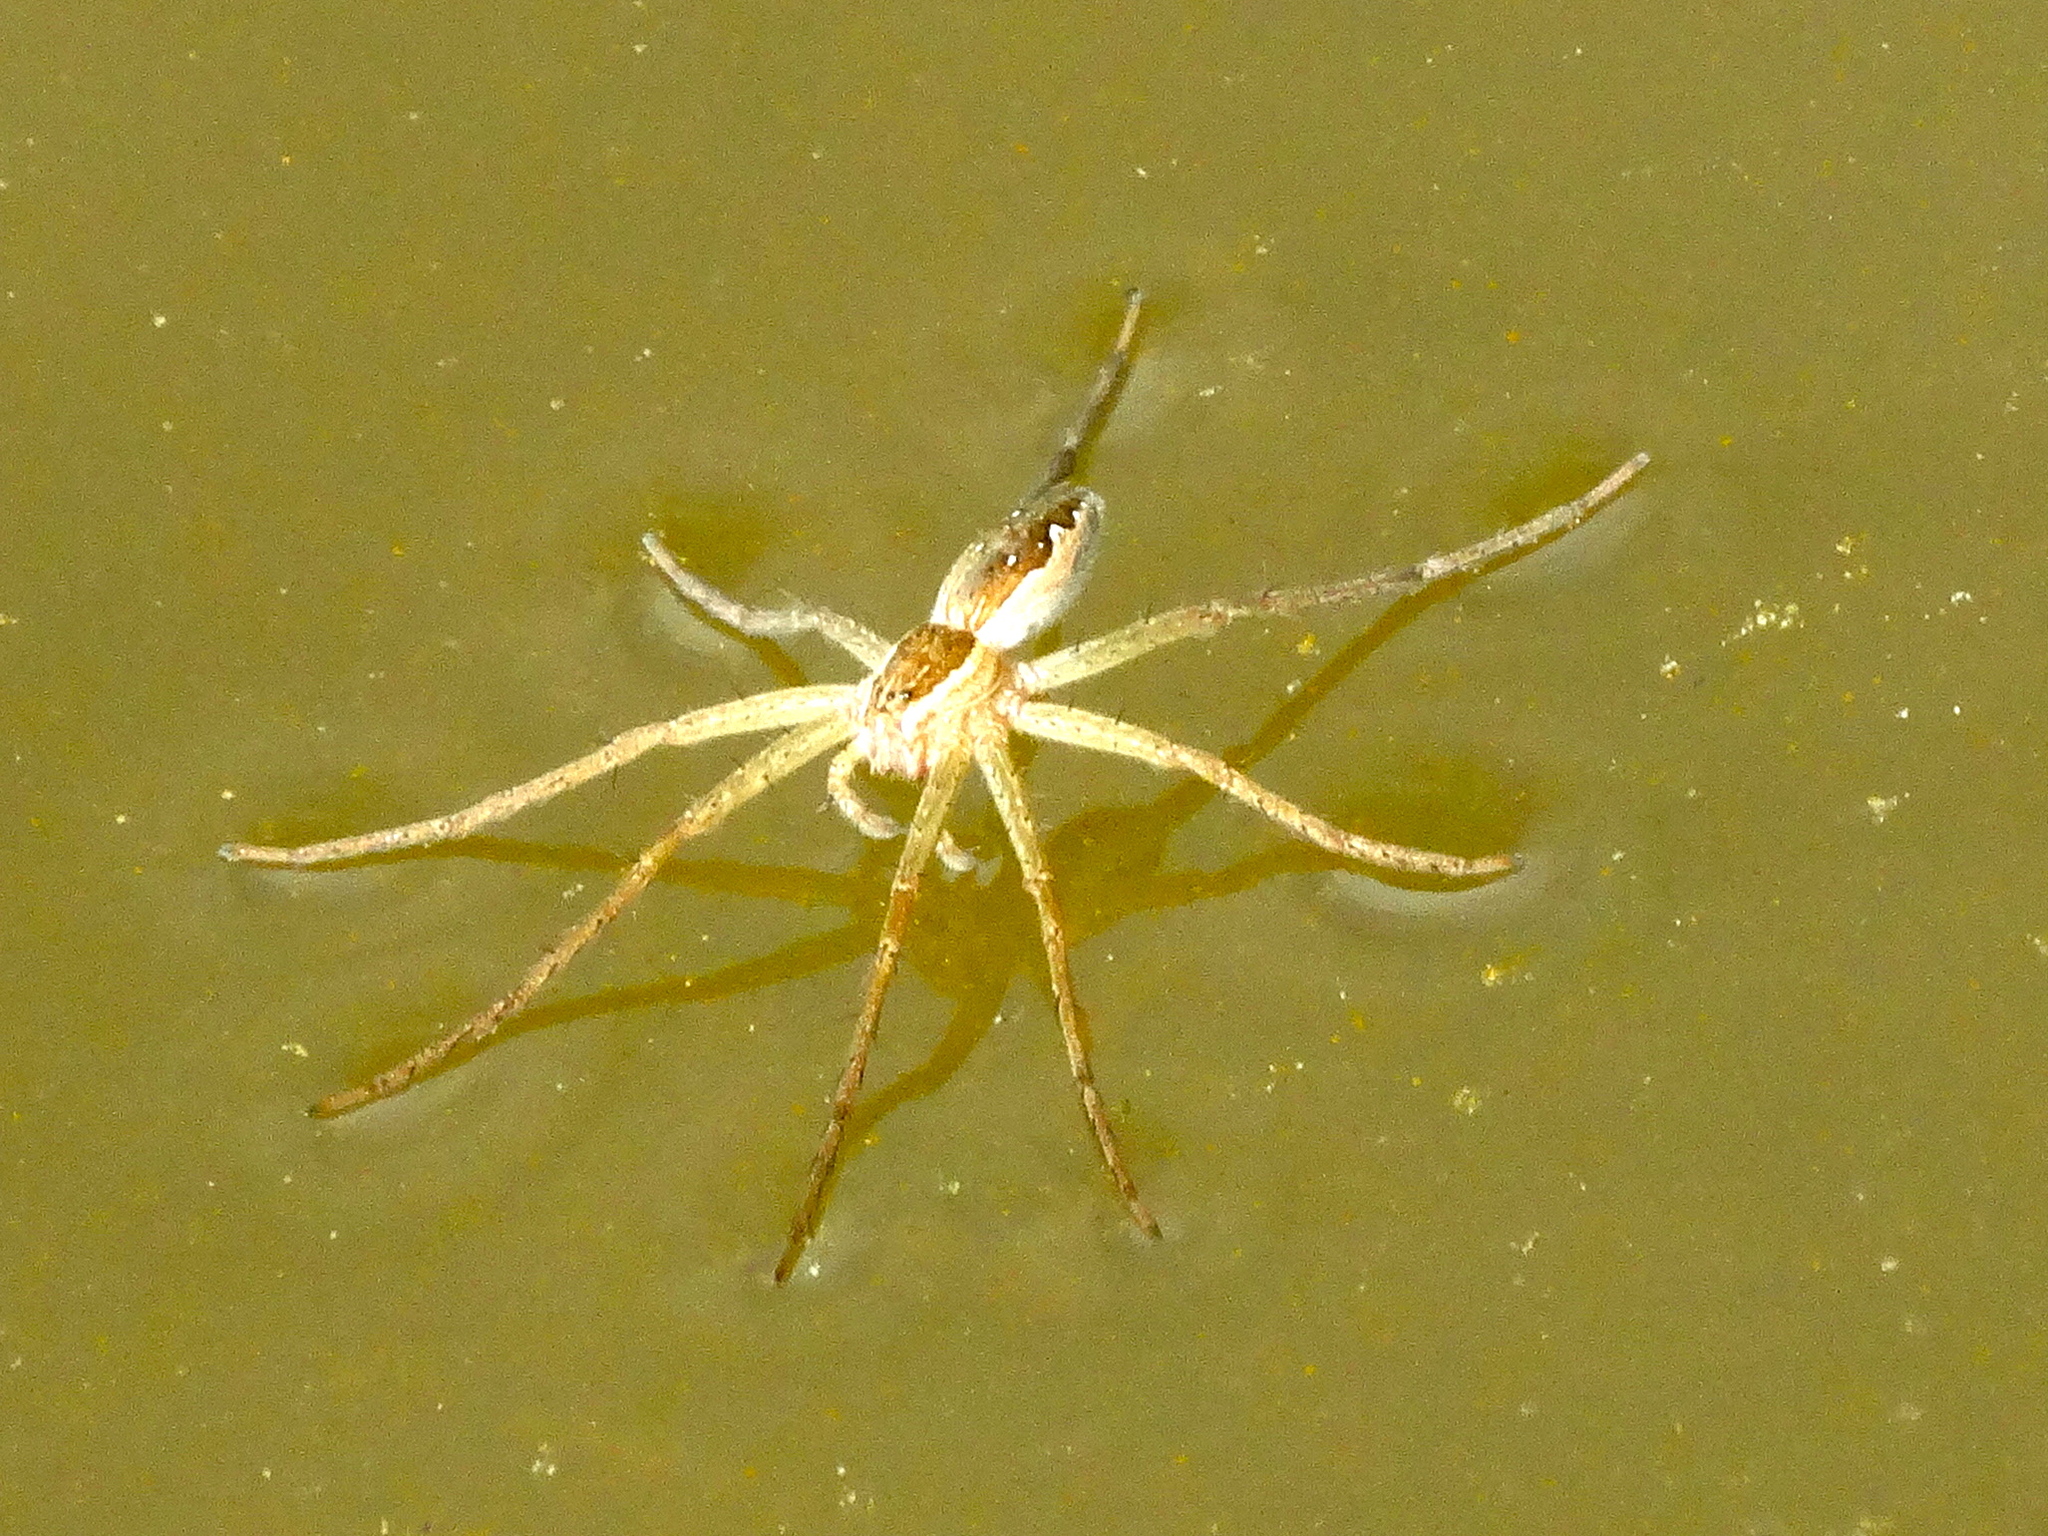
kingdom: Animalia
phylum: Arthropoda
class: Arachnida
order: Araneae
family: Pisauridae
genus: Tinus
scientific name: Tinus
